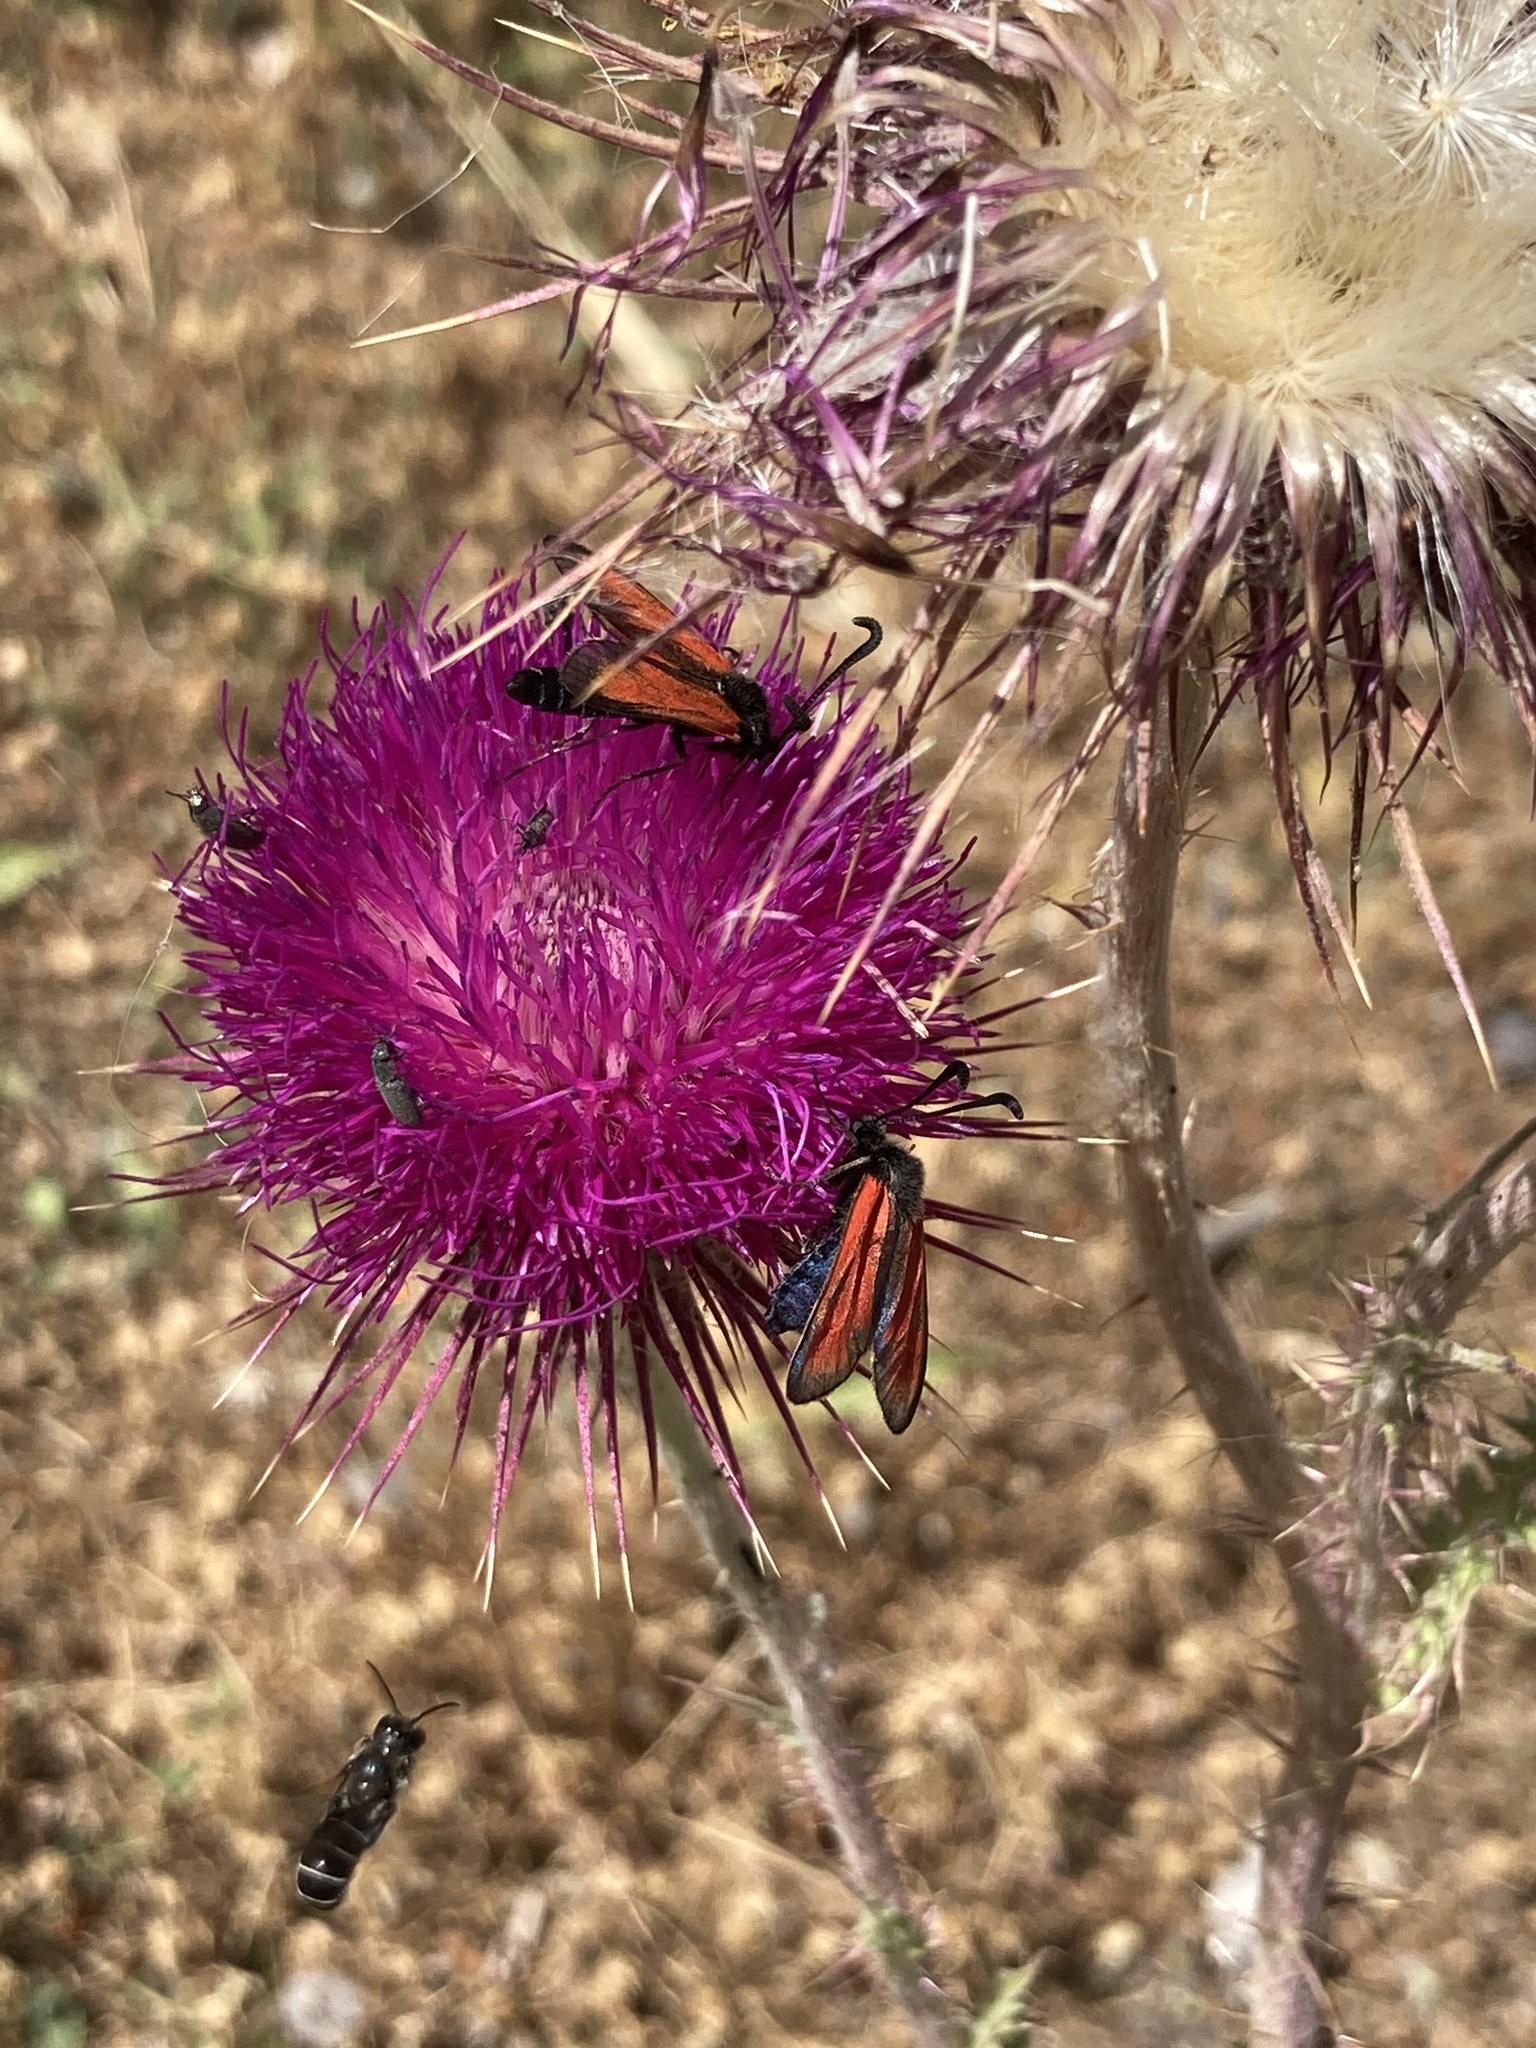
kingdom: Animalia
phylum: Arthropoda
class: Insecta
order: Lepidoptera
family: Zygaenidae
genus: Zygaena
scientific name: Zygaena punctum
